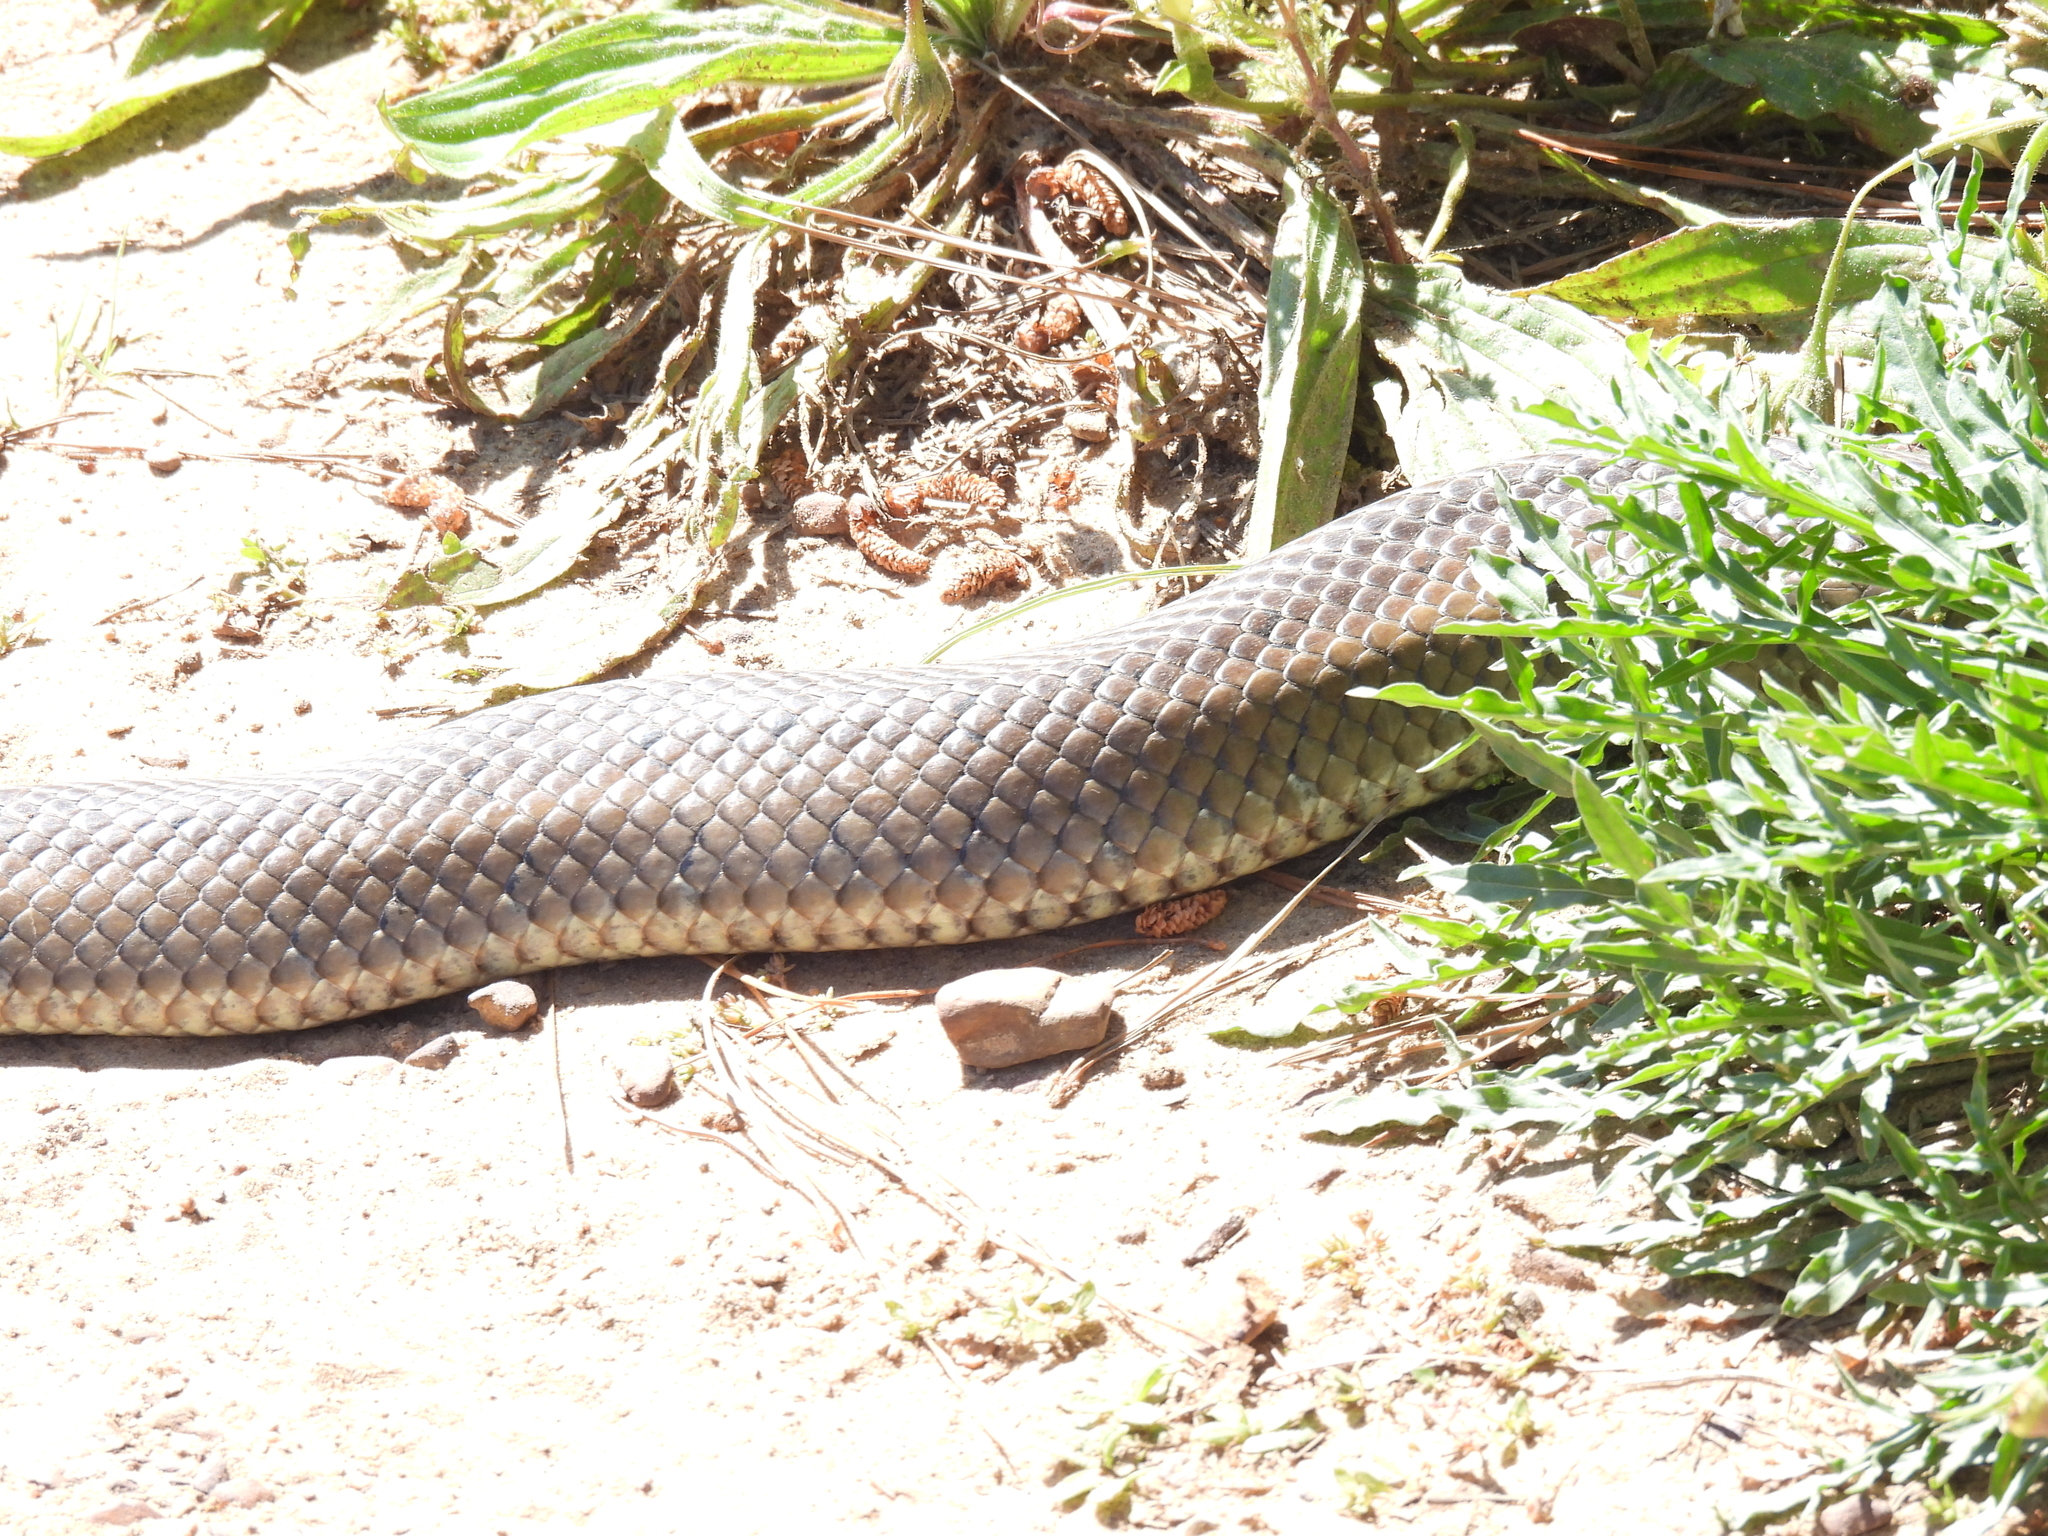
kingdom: Animalia
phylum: Chordata
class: Squamata
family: Pseudaspididae
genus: Pseudaspis
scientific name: Pseudaspis cana
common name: Mole snake
